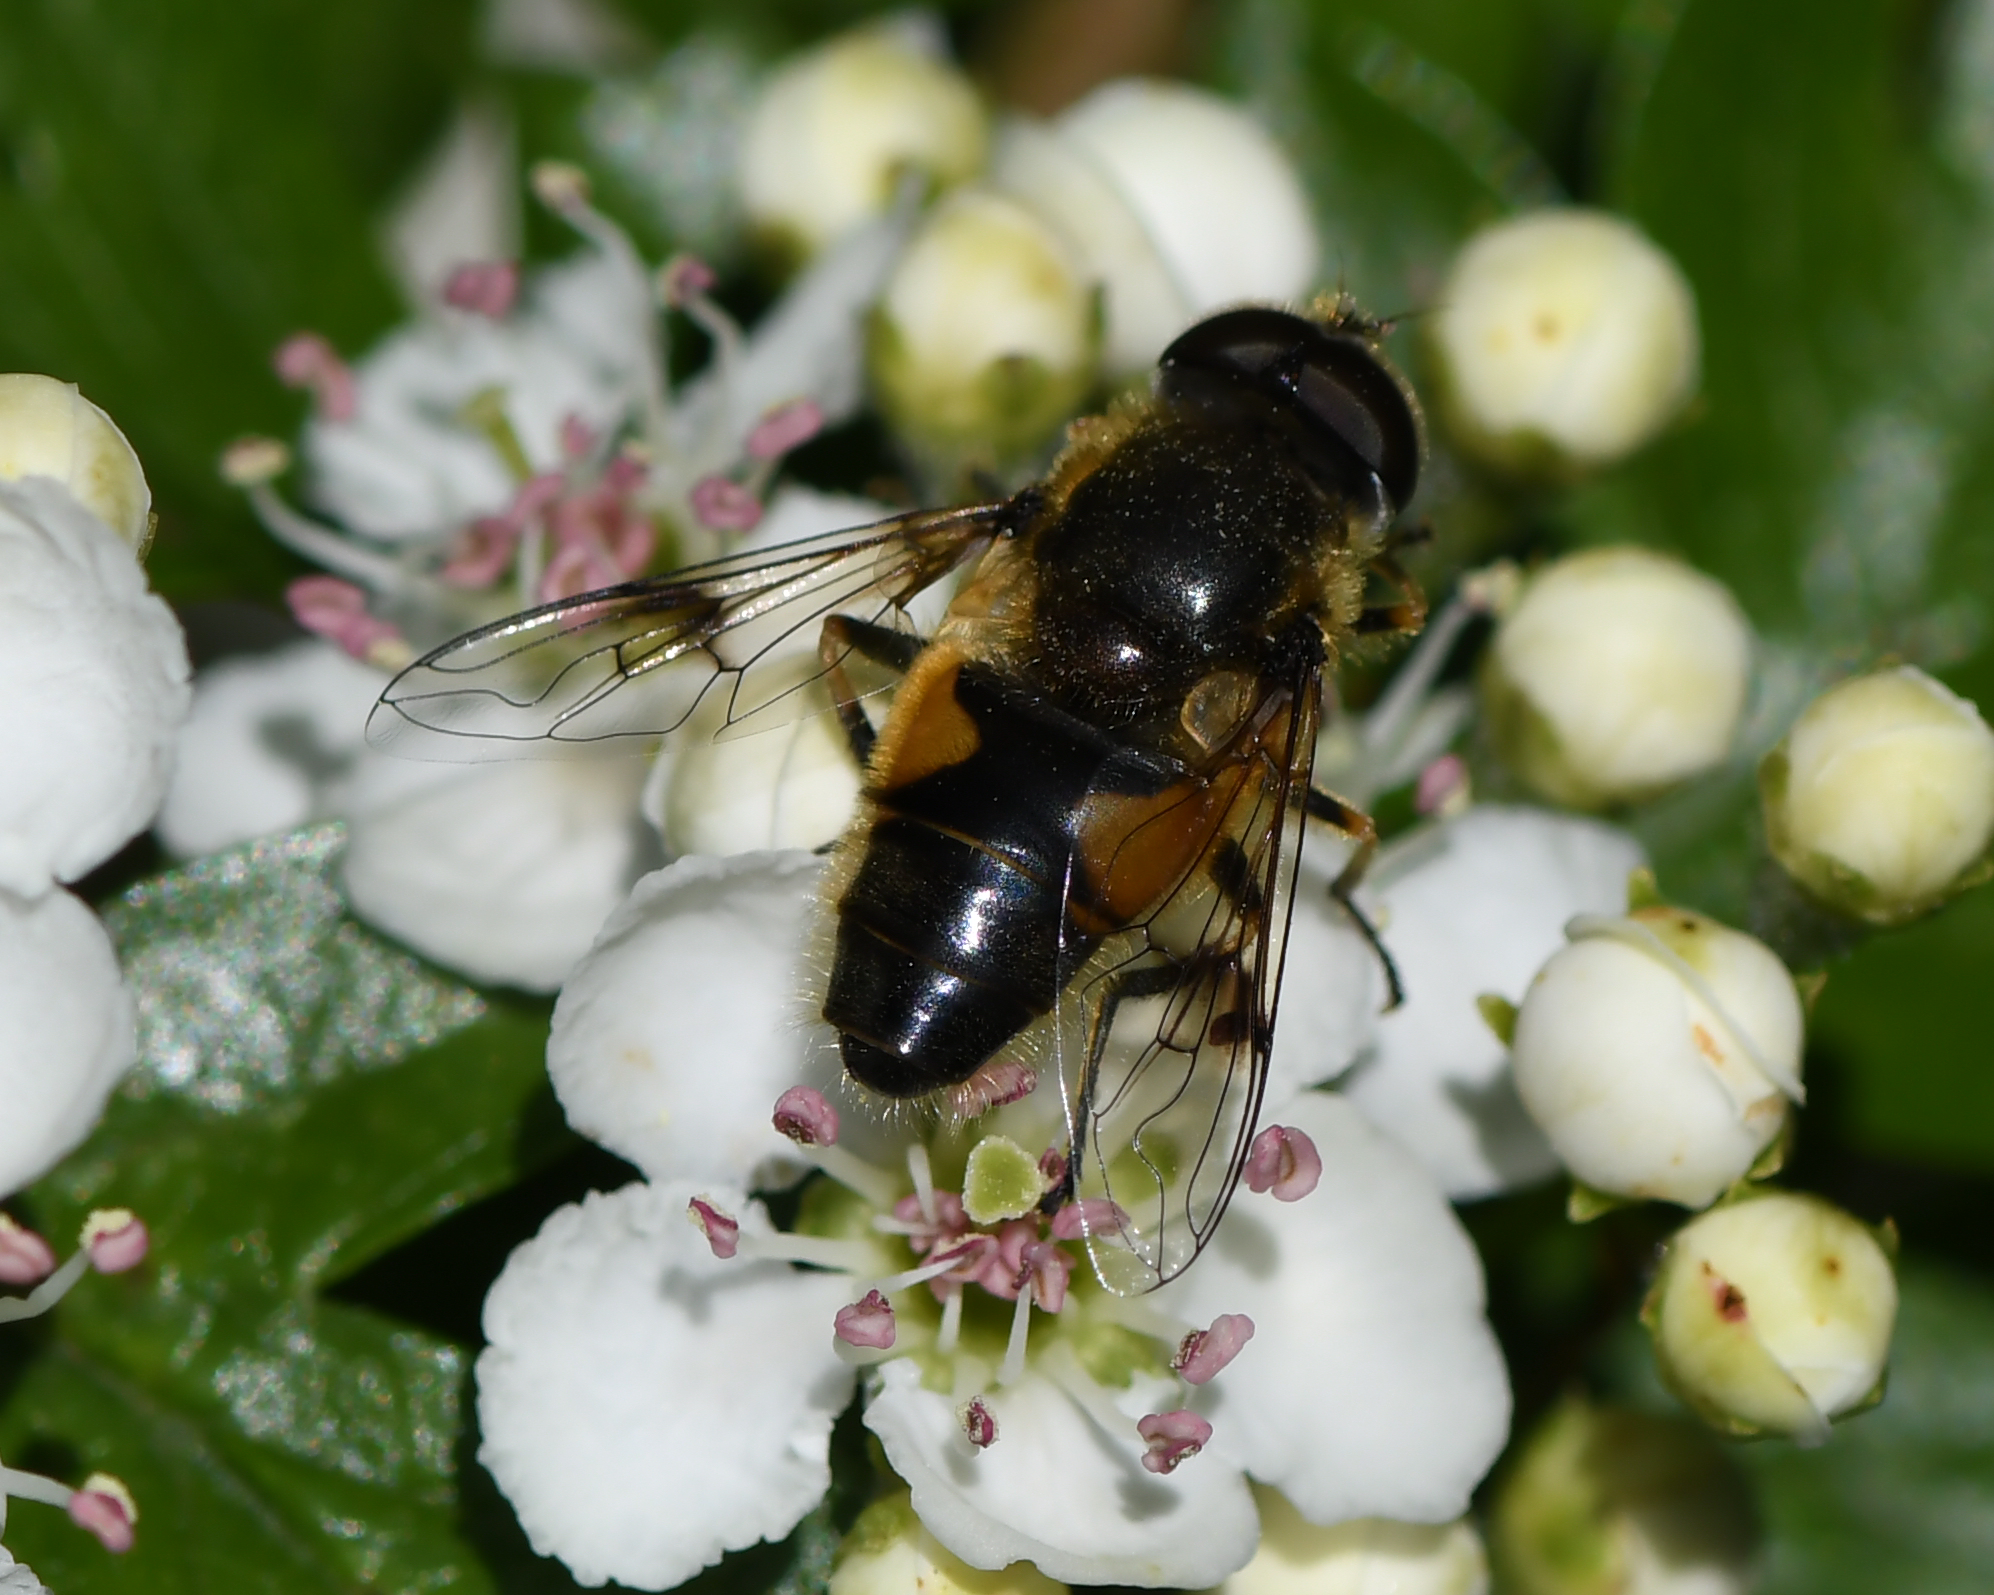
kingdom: Animalia
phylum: Arthropoda
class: Insecta
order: Diptera
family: Syrphidae
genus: Cheilosia
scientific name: Cheilosia morio
